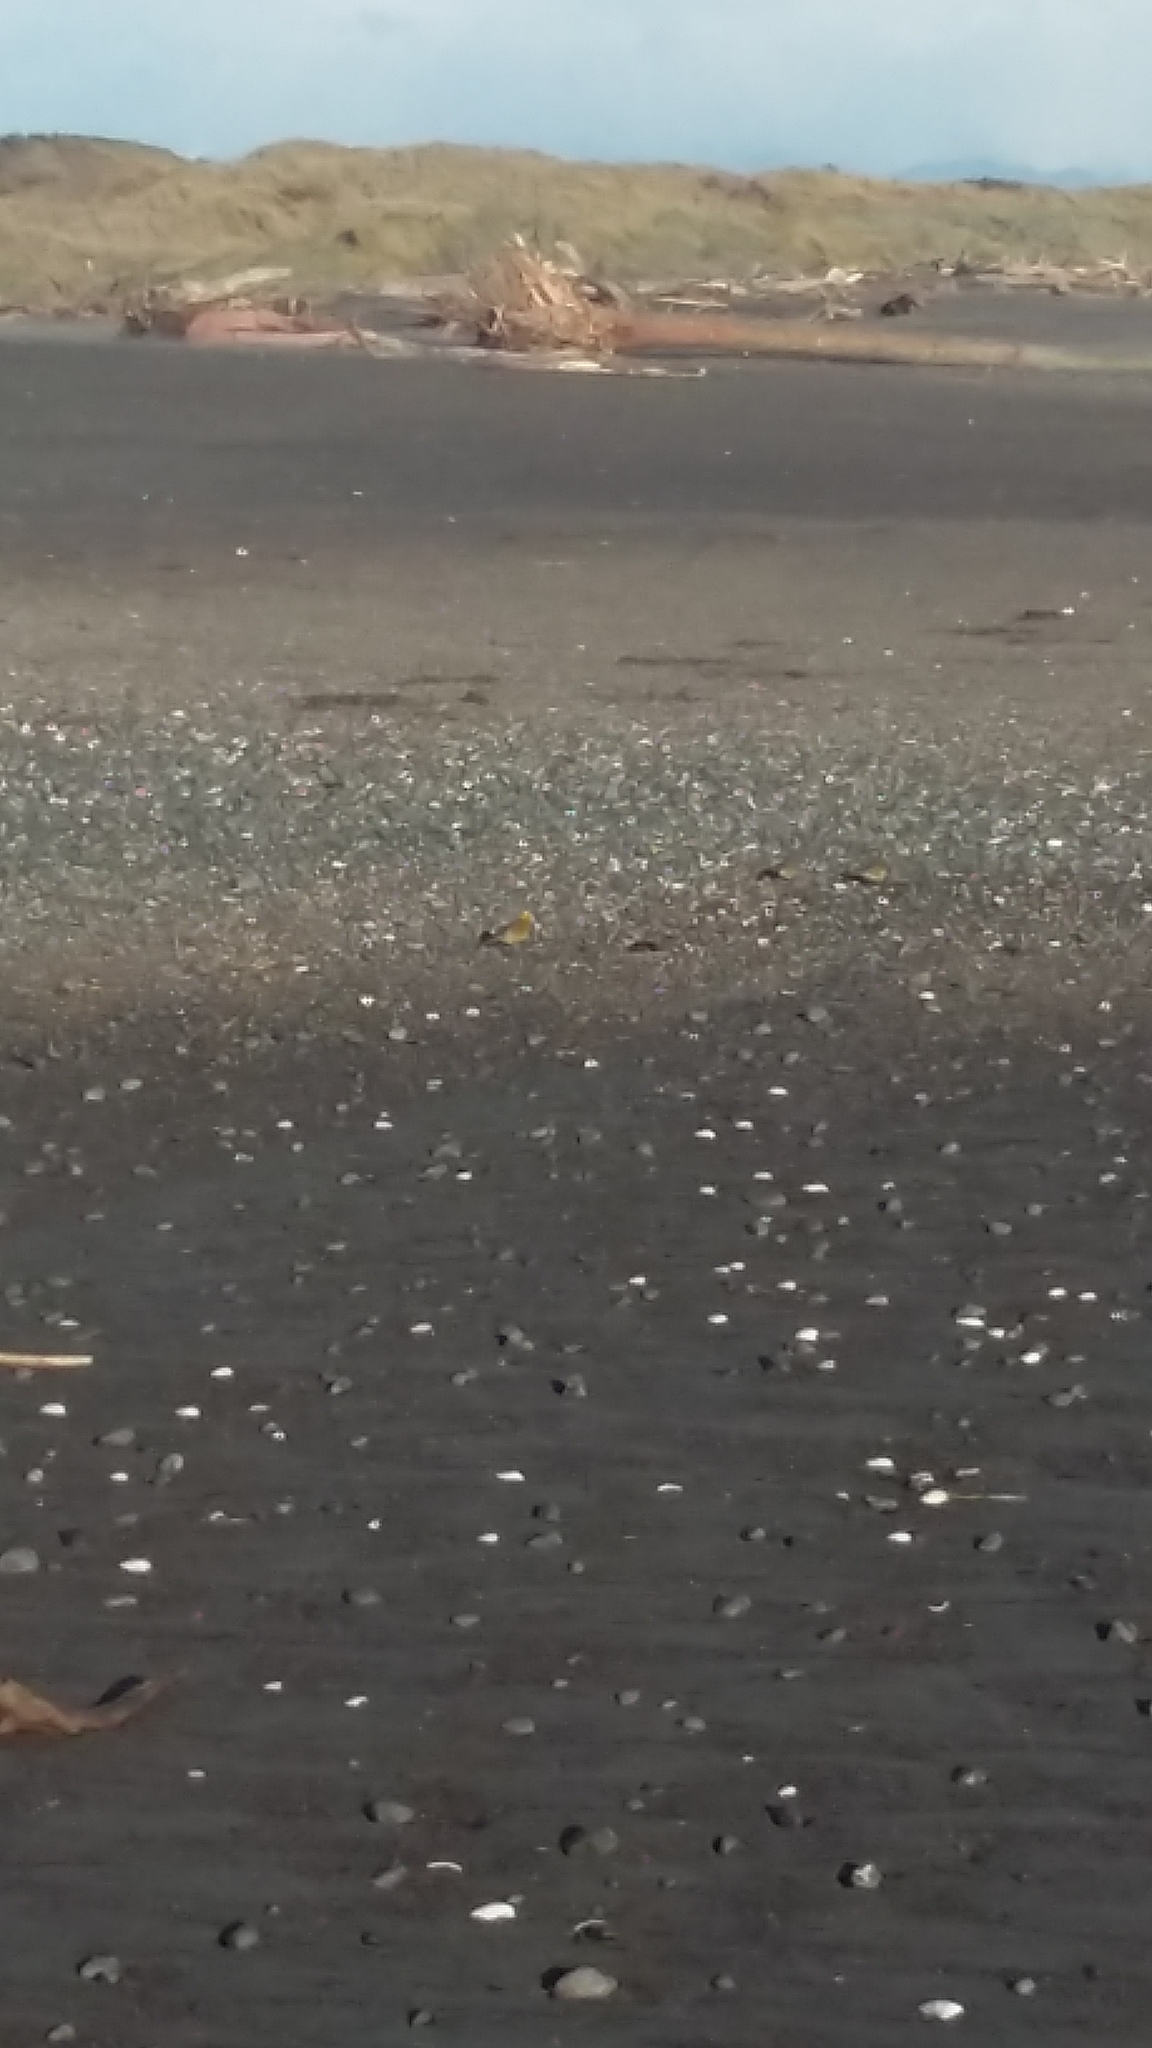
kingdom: Animalia
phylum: Chordata
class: Aves
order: Passeriformes
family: Emberizidae
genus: Emberiza
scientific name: Emberiza citrinella
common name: Yellowhammer
